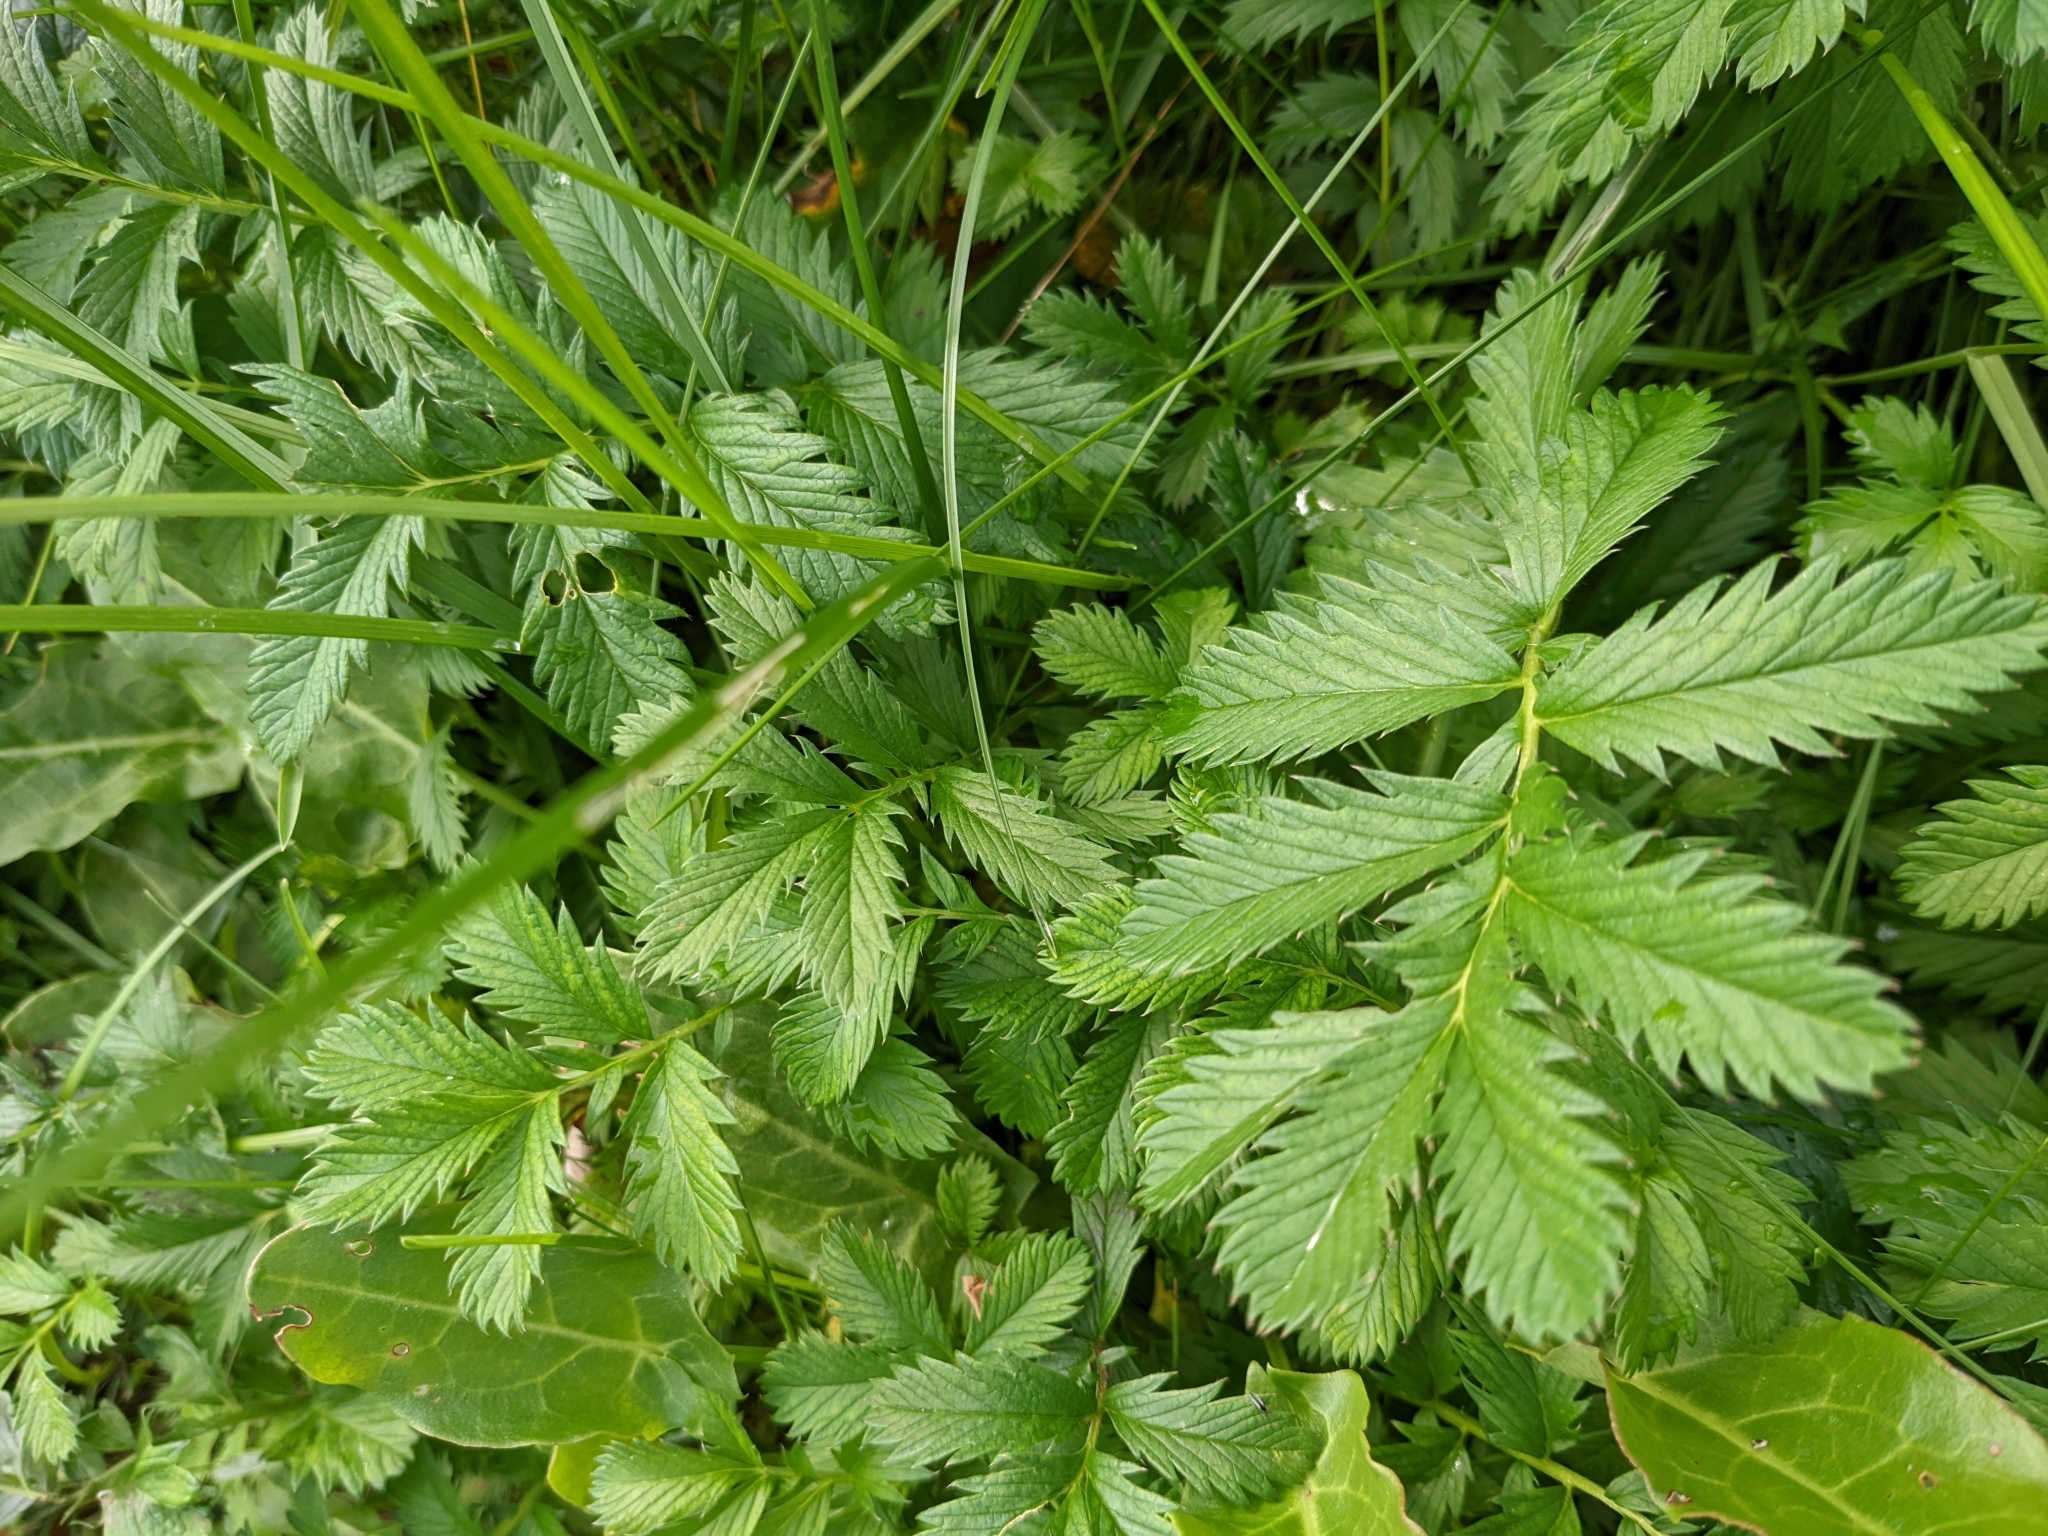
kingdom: Plantae
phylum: Tracheophyta
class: Magnoliopsida
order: Rosales
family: Rosaceae
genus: Argentina
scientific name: Argentina anserina
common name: Common silverweed
